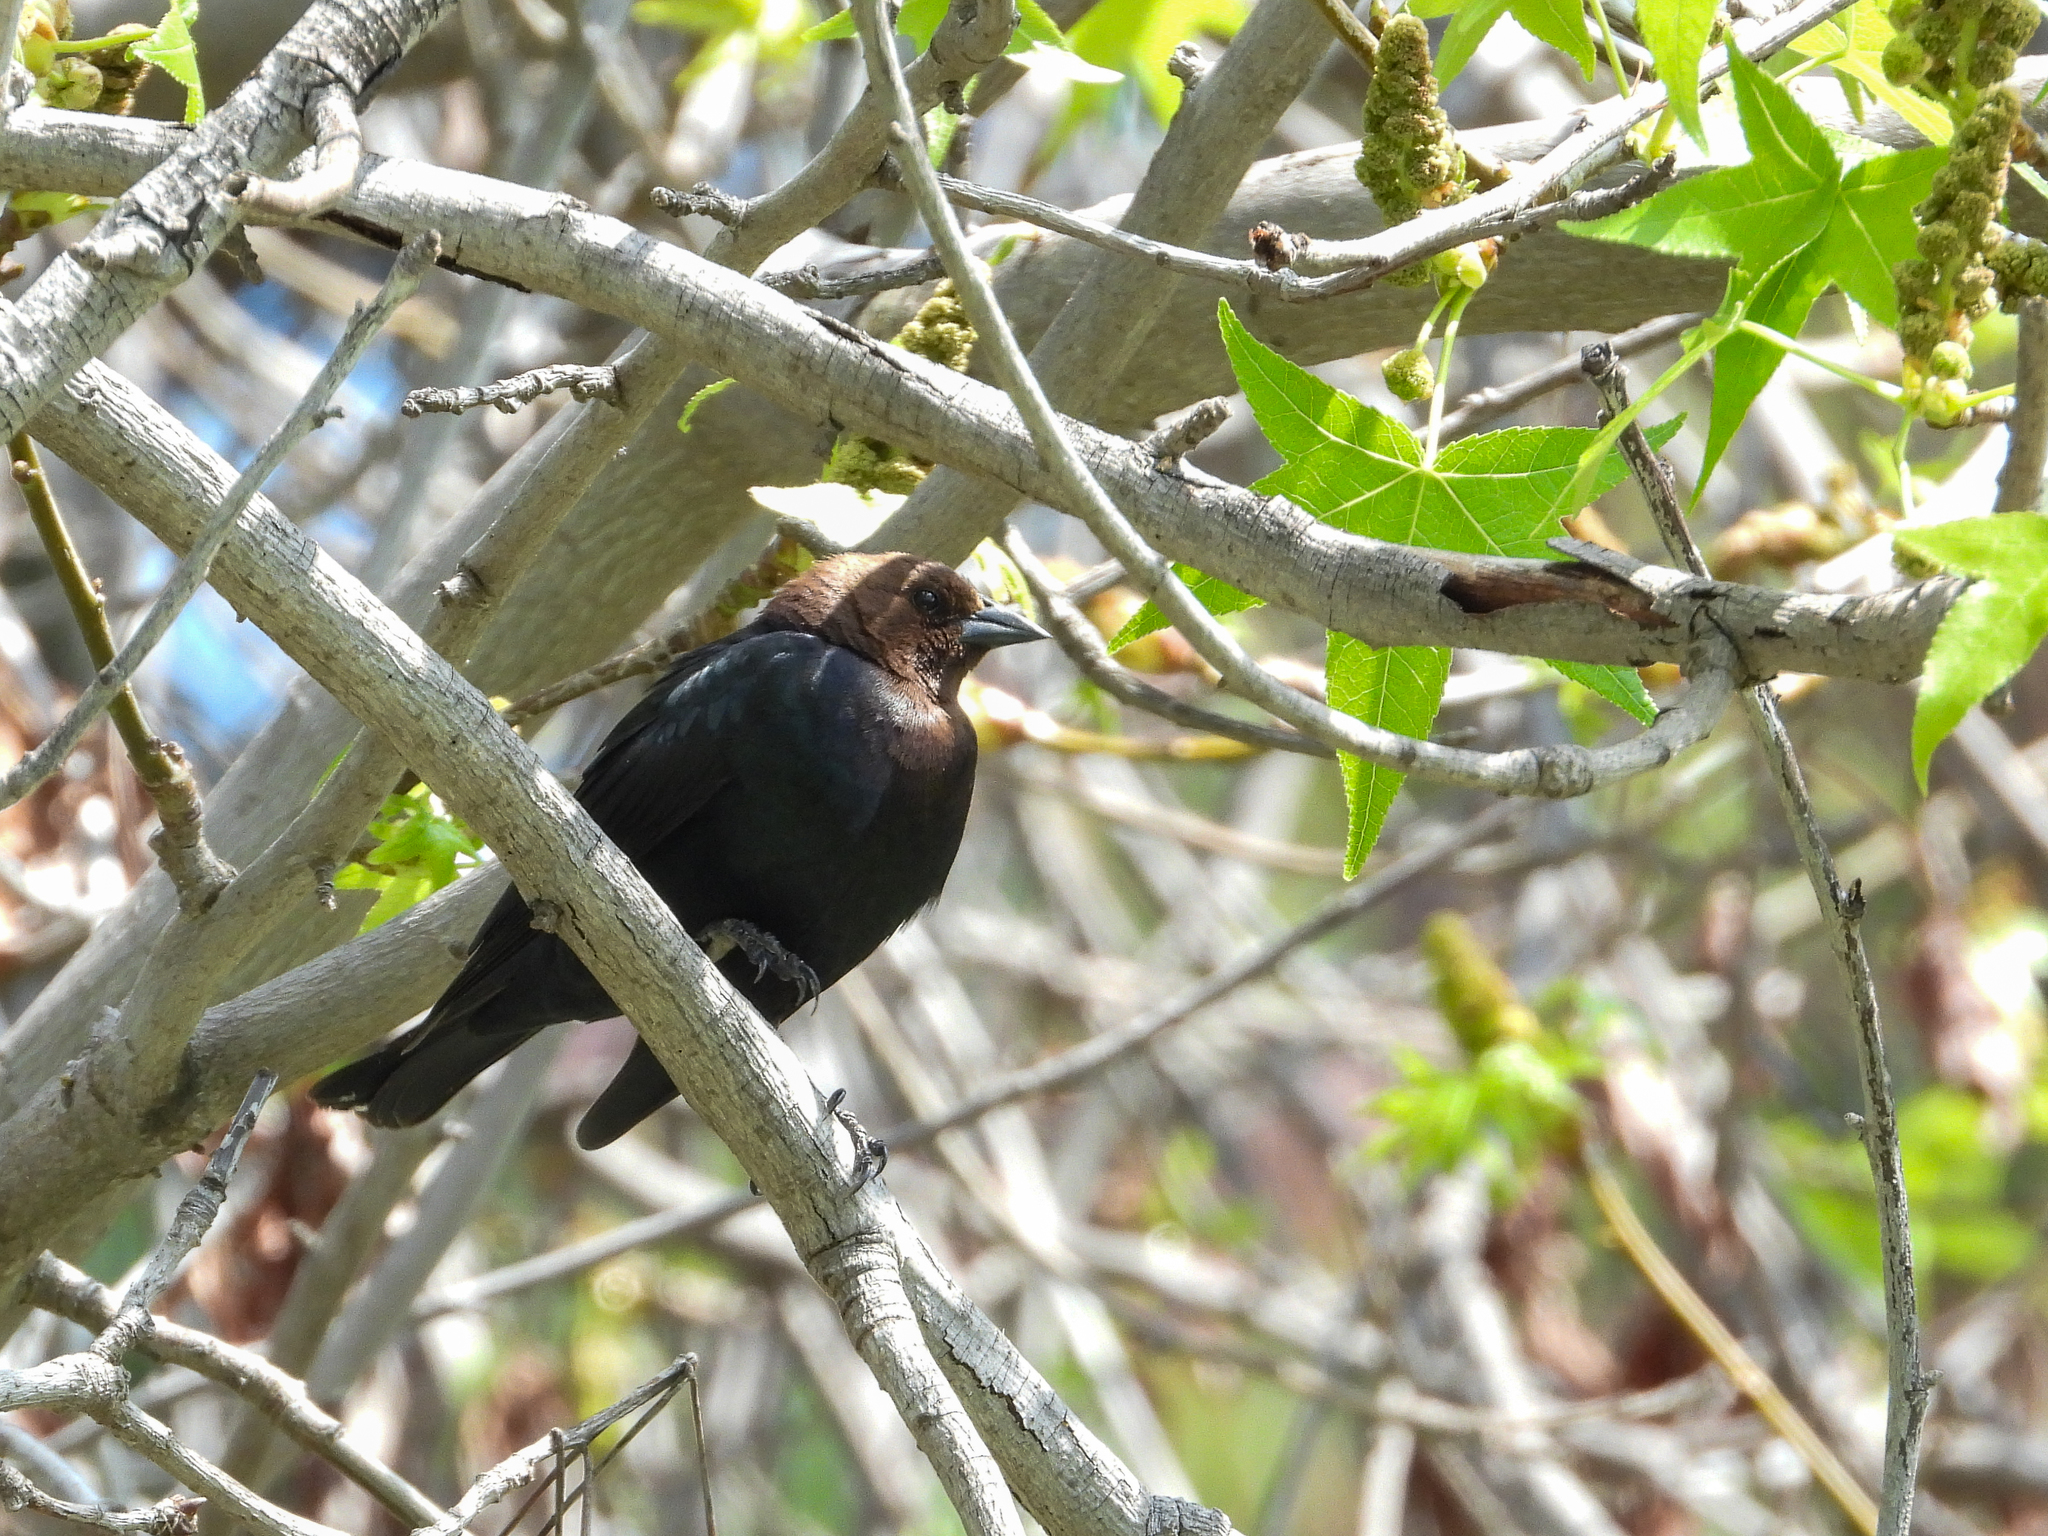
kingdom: Animalia
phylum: Chordata
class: Aves
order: Passeriformes
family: Icteridae
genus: Molothrus
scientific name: Molothrus ater
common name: Brown-headed cowbird
